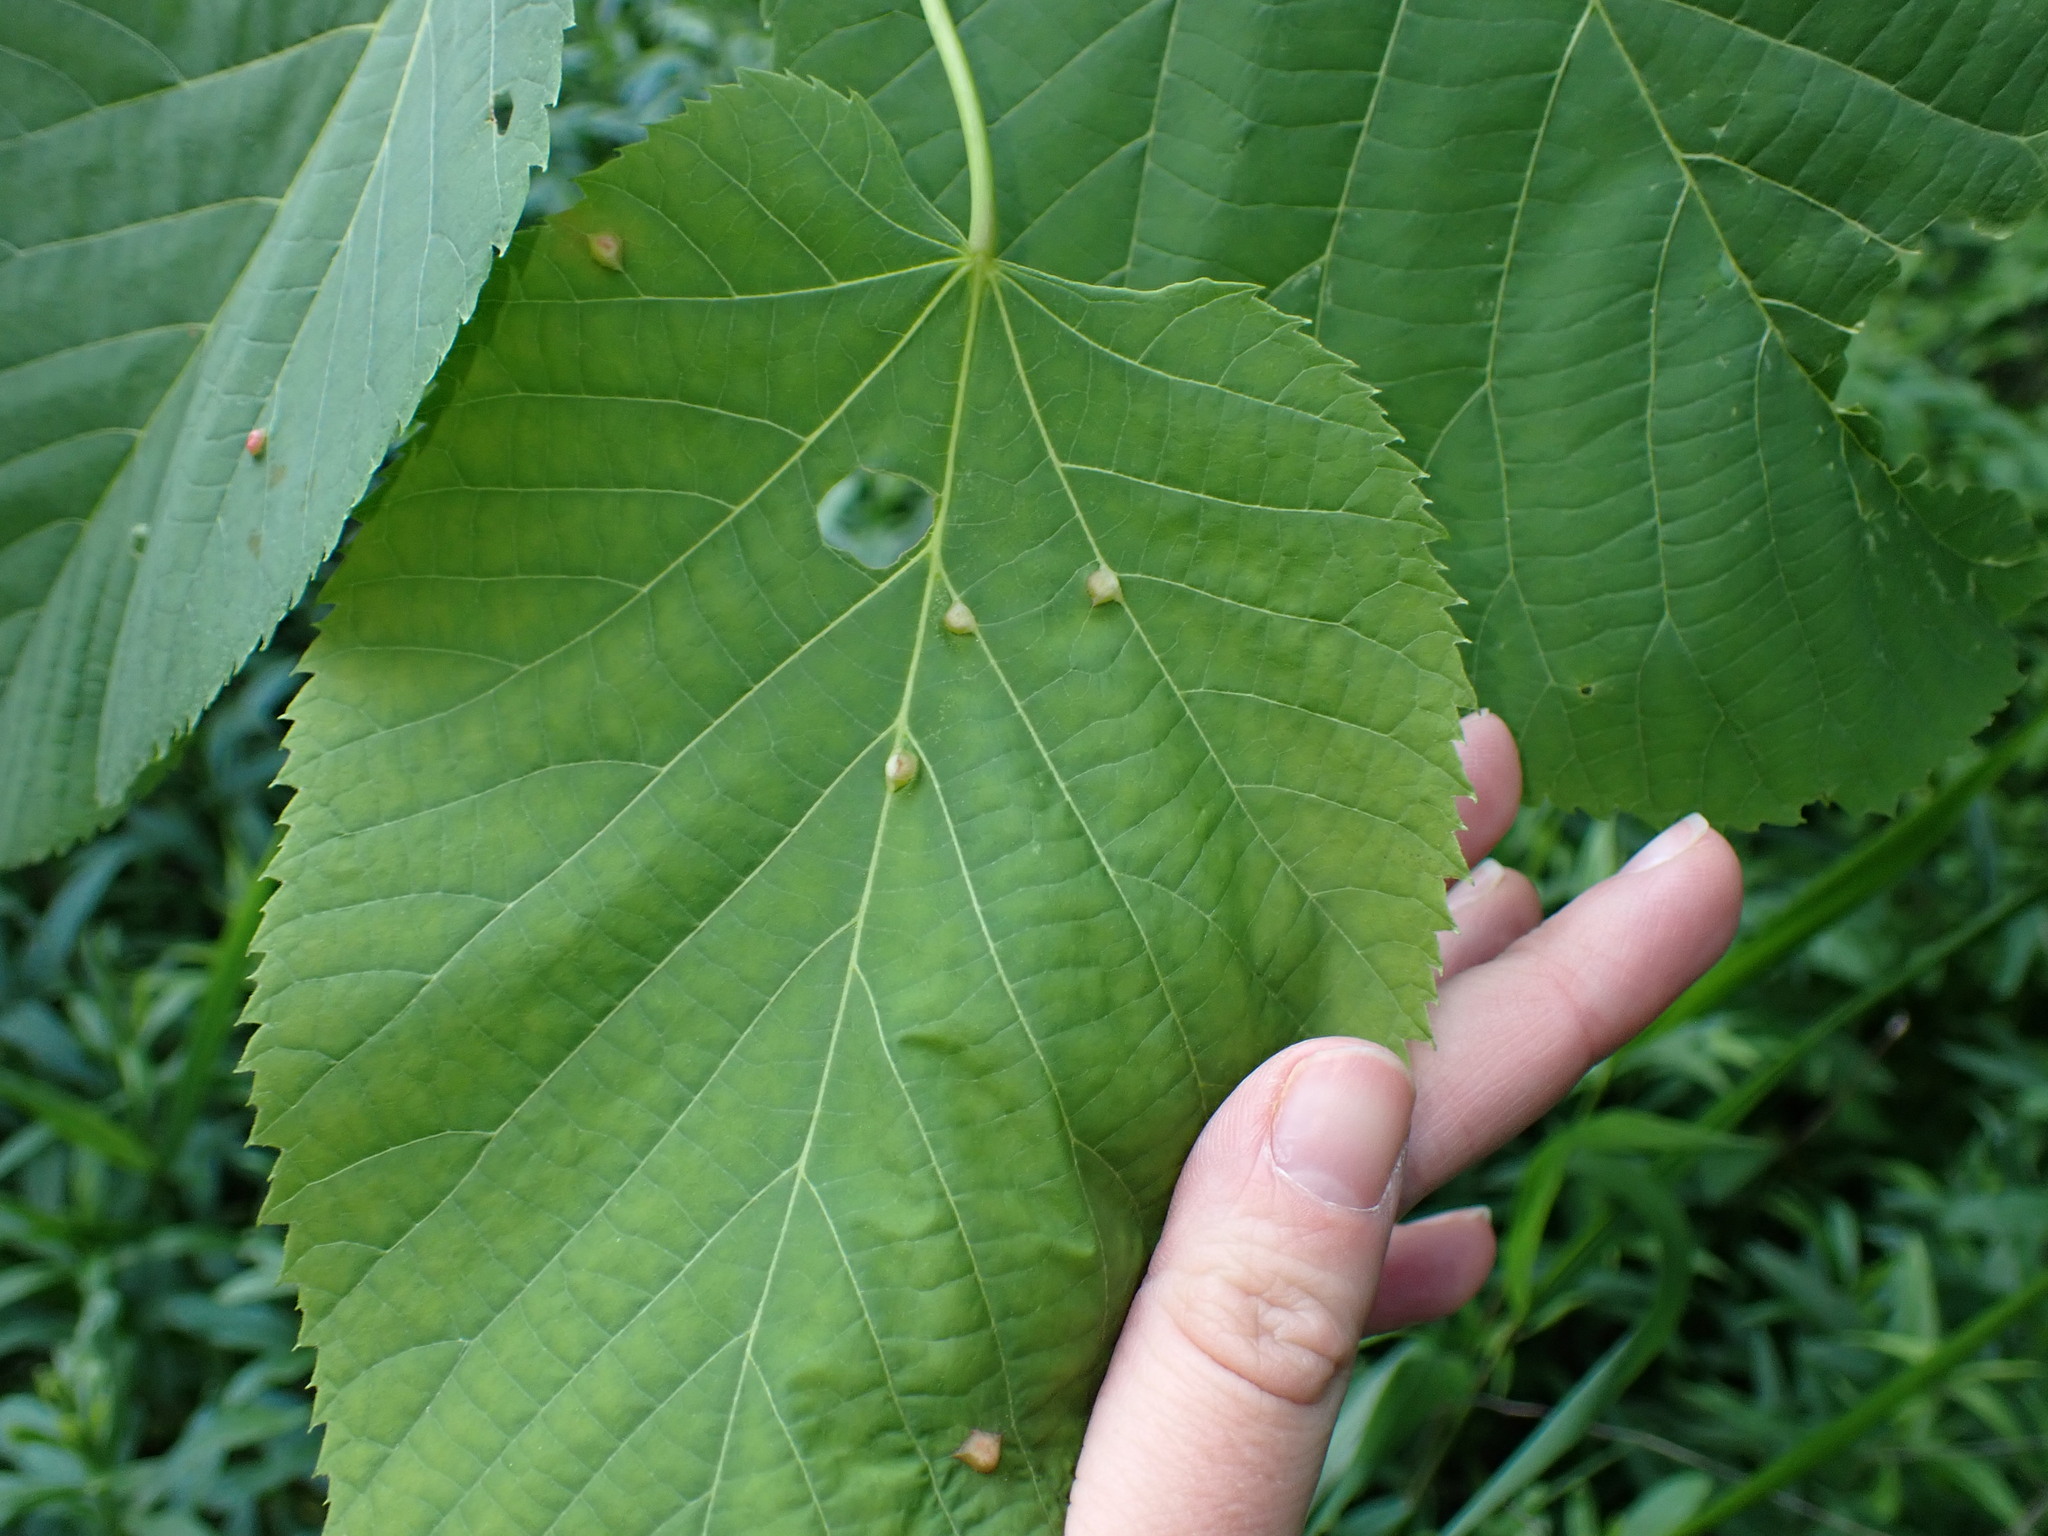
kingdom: Plantae
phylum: Tracheophyta
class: Magnoliopsida
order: Malvales
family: Malvaceae
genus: Tilia
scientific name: Tilia americana
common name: Basswood
